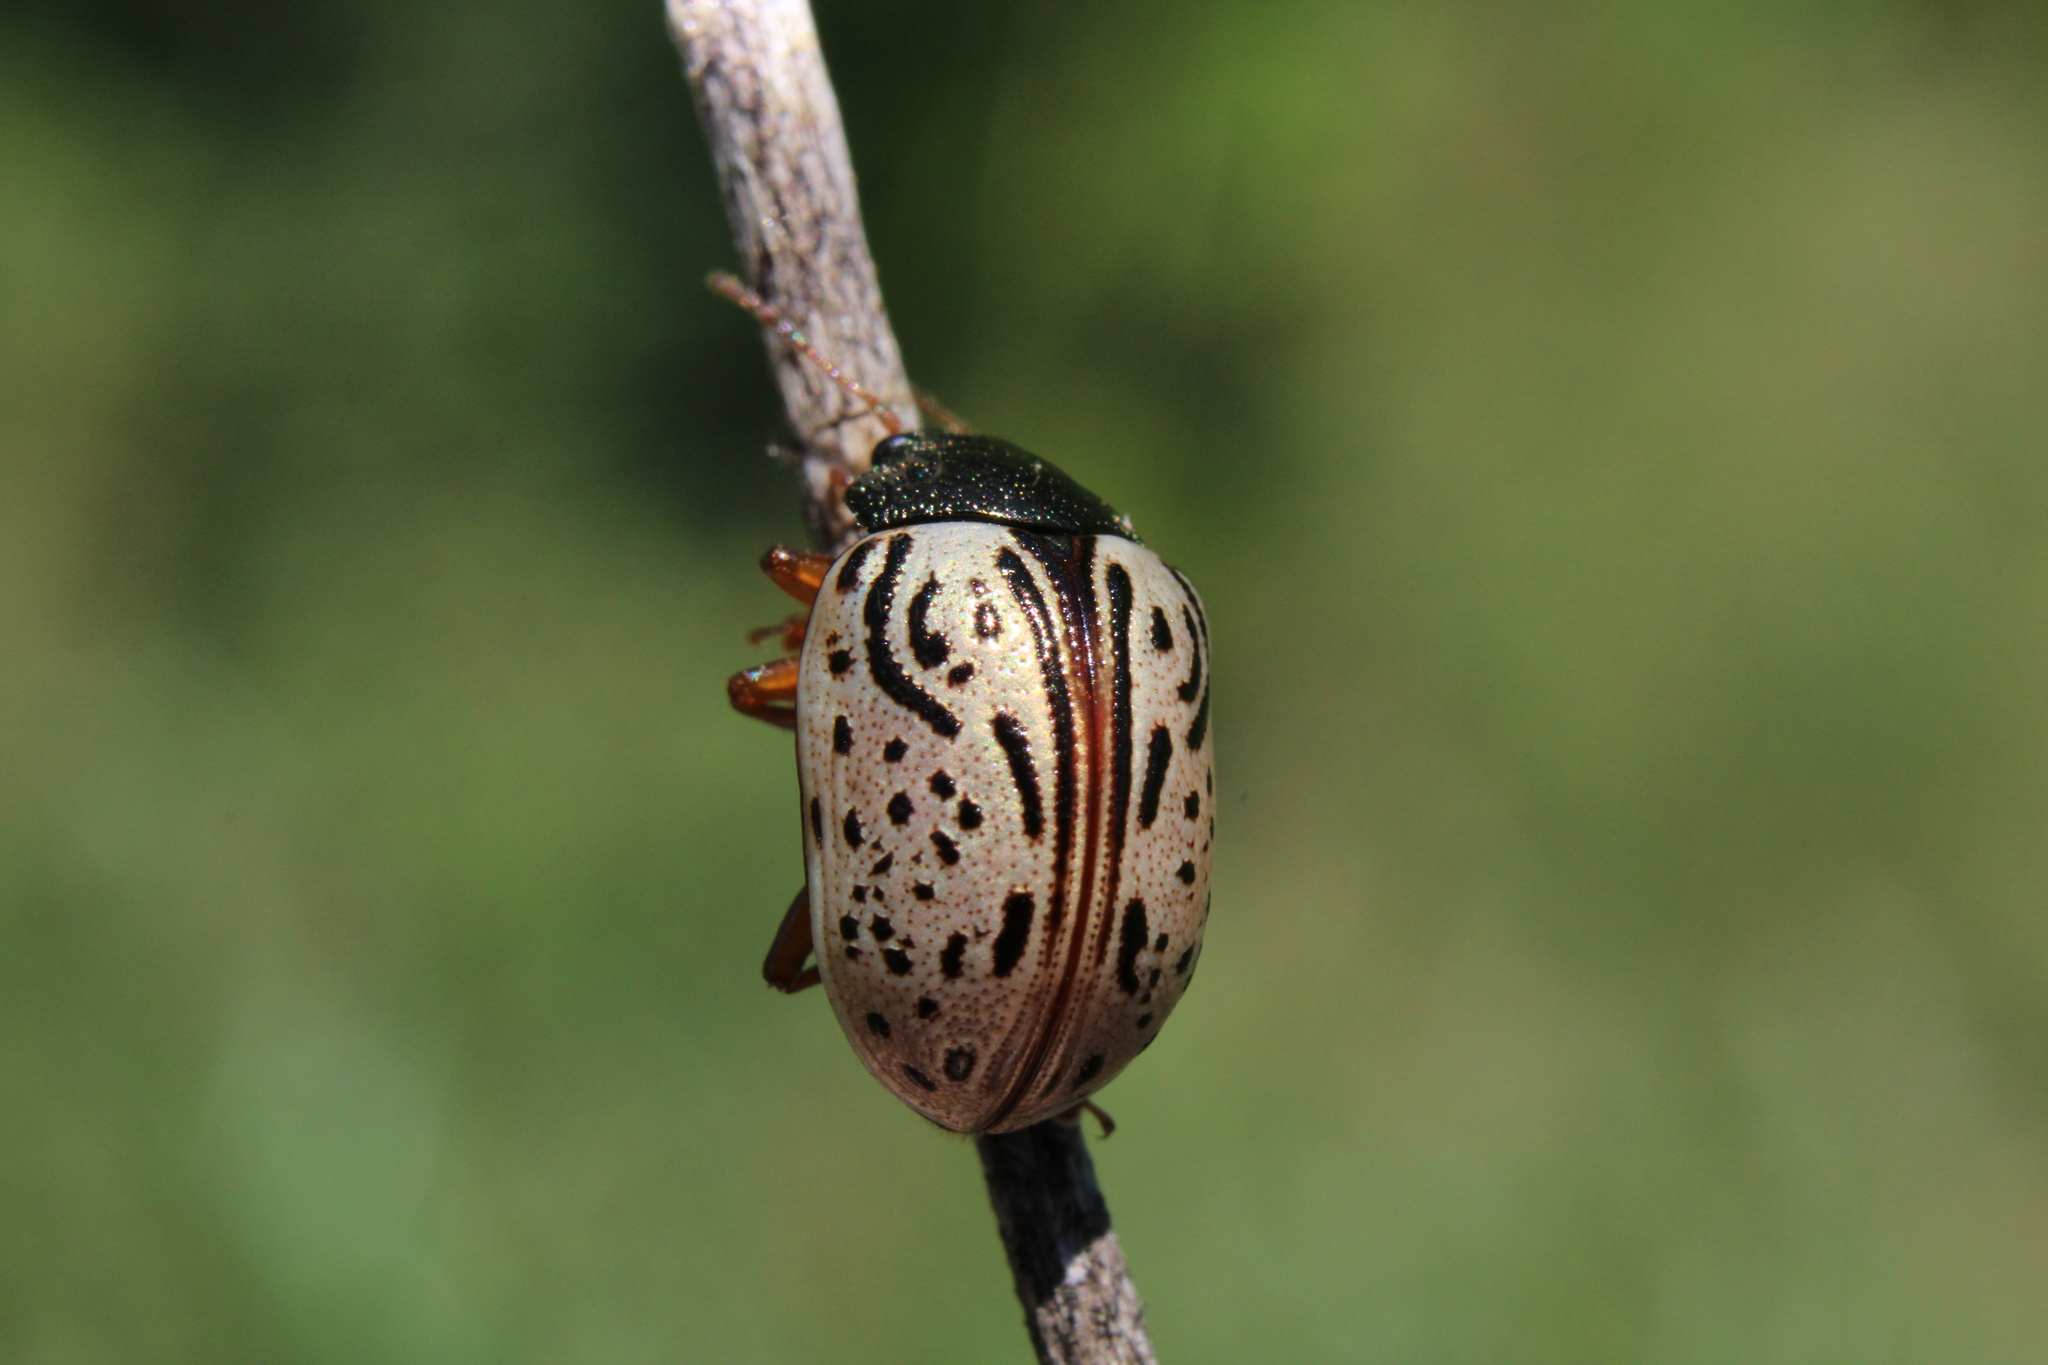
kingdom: Animalia
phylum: Arthropoda
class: Insecta
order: Coleoptera
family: Chrysomelidae
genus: Calligrapha
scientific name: Calligrapha philadelphica
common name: Dogwood leaf beetle
